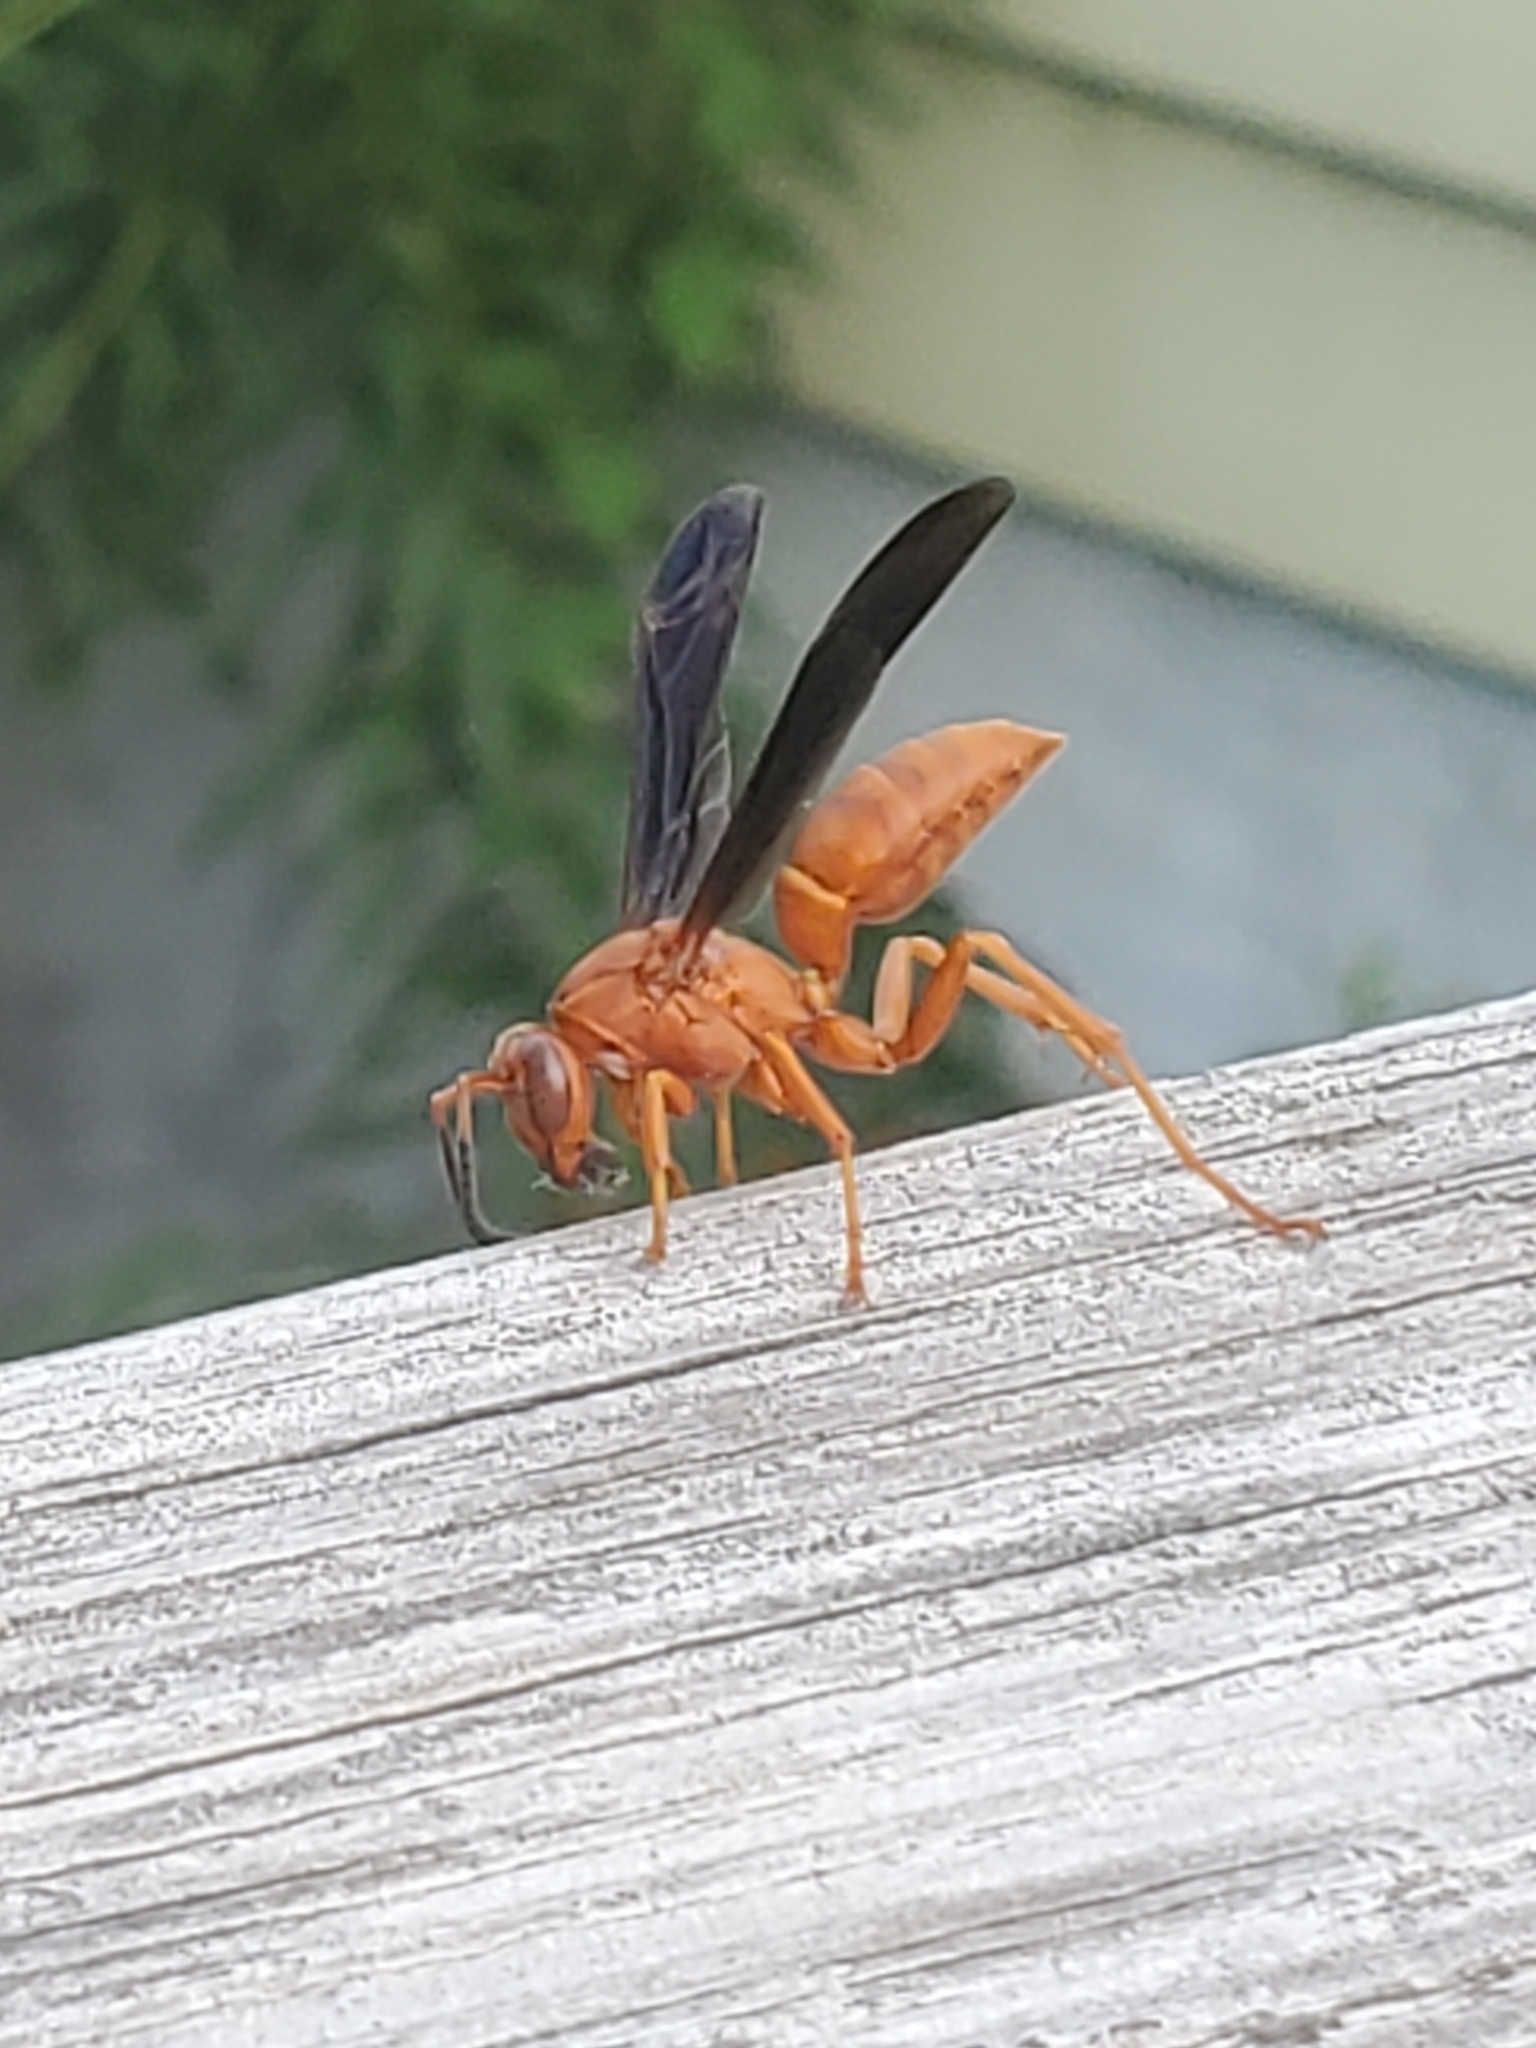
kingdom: Animalia
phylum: Arthropoda
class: Insecta
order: Hymenoptera
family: Eumenidae
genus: Polistes
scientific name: Polistes carolina
